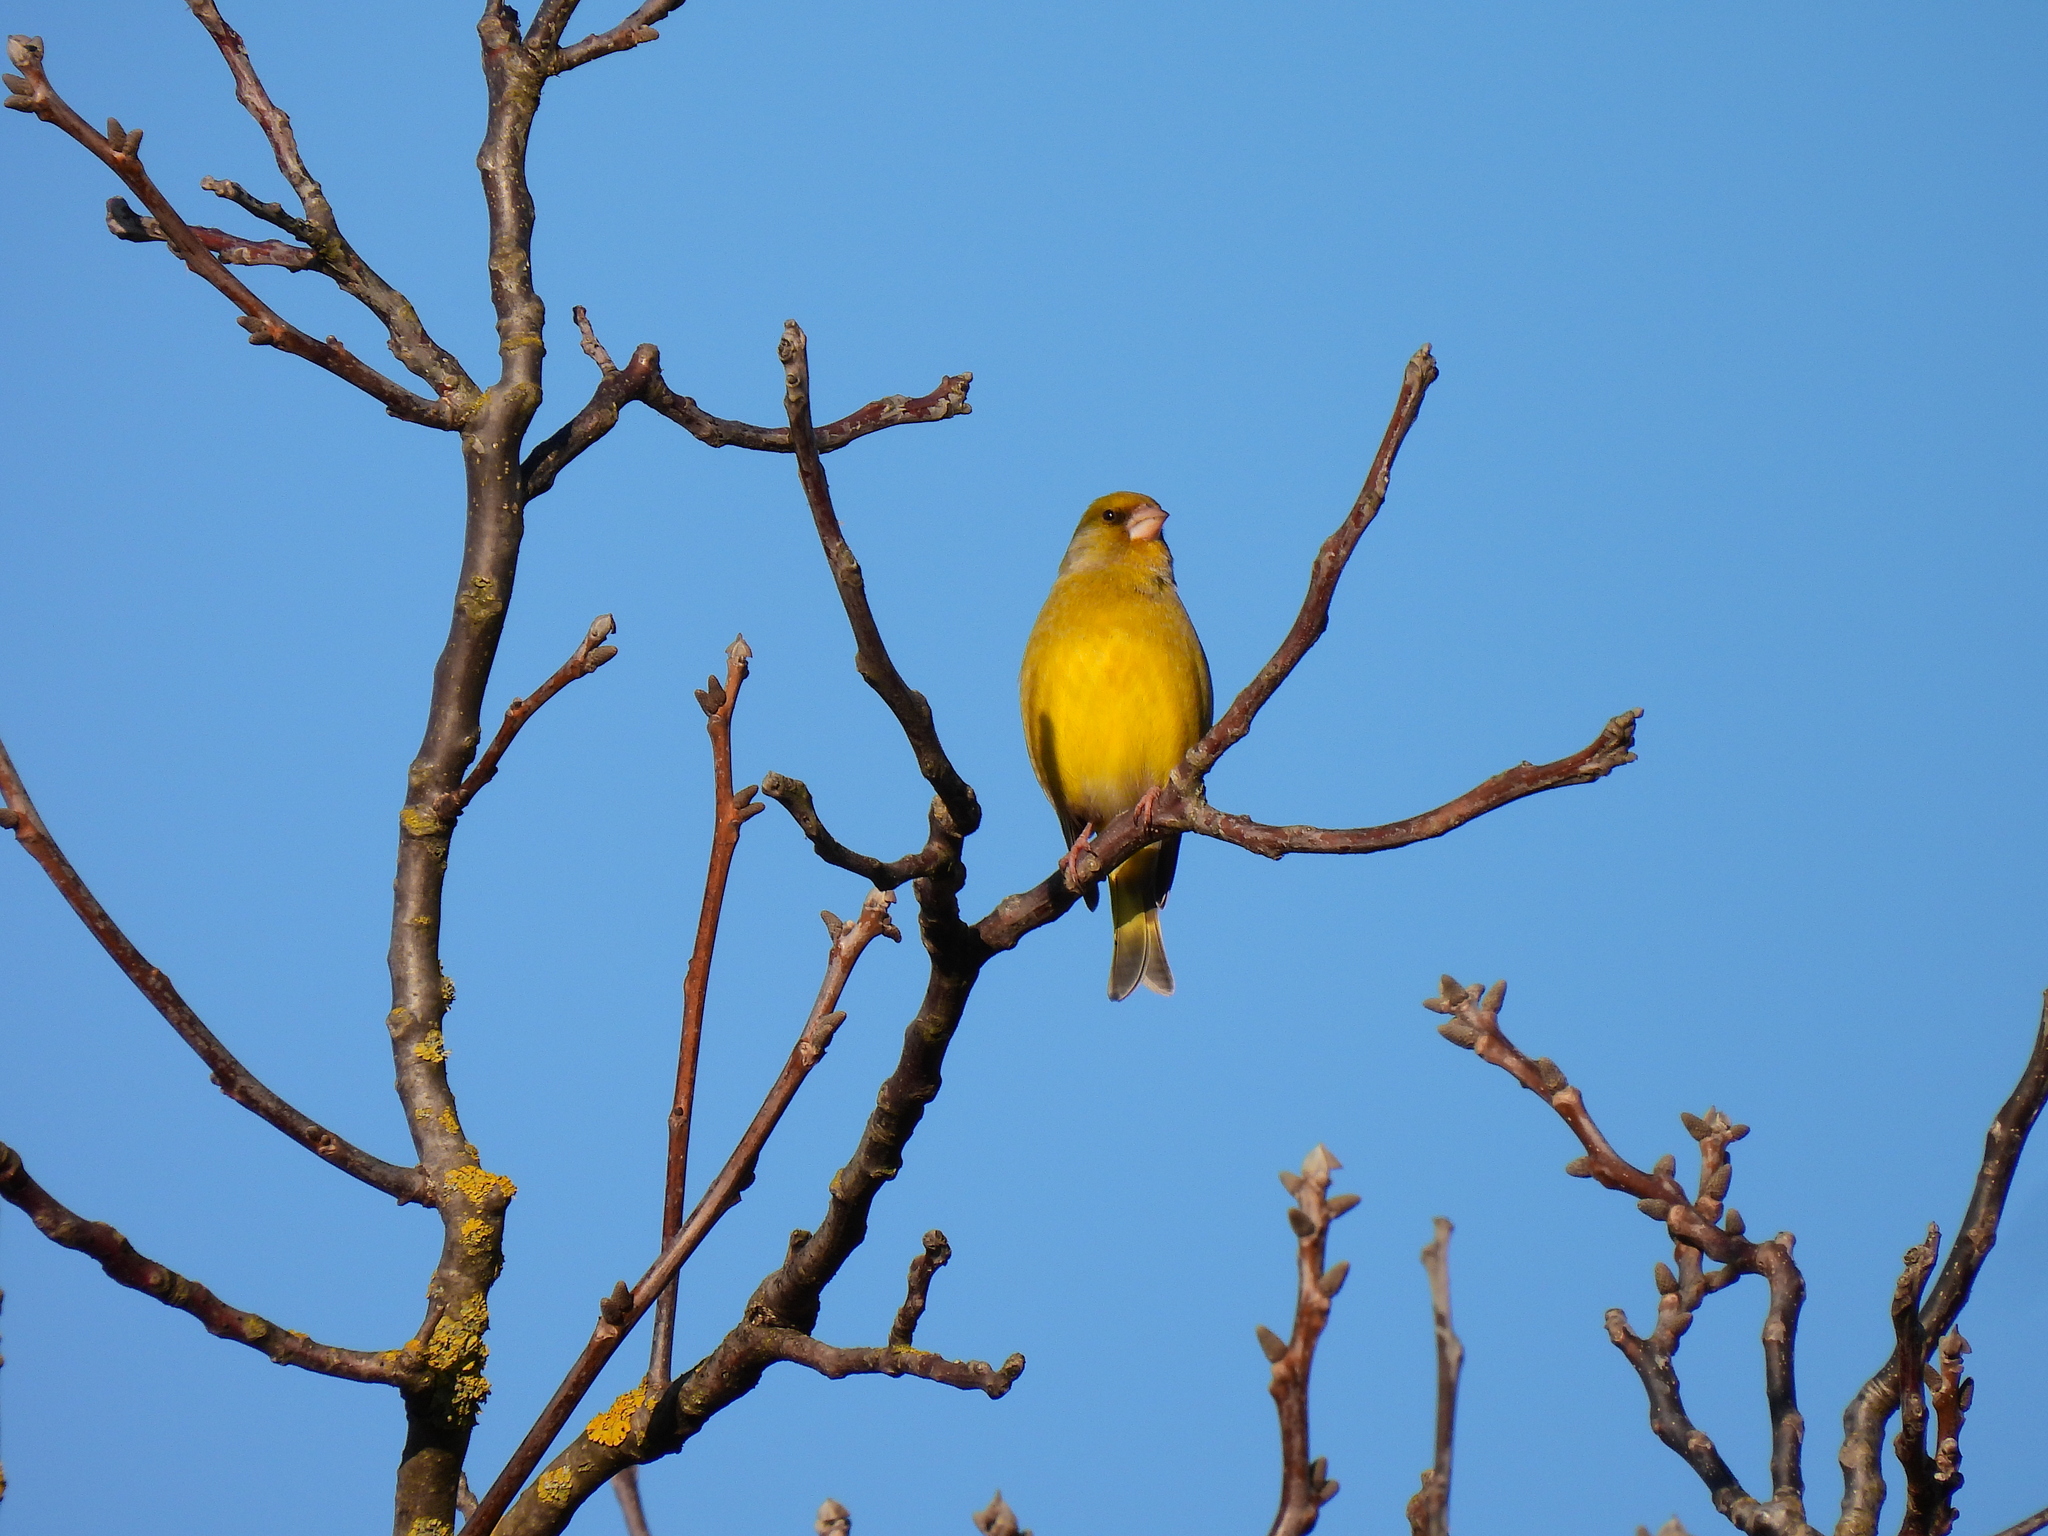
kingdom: Plantae
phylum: Tracheophyta
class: Liliopsida
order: Poales
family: Poaceae
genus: Chloris
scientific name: Chloris chloris
